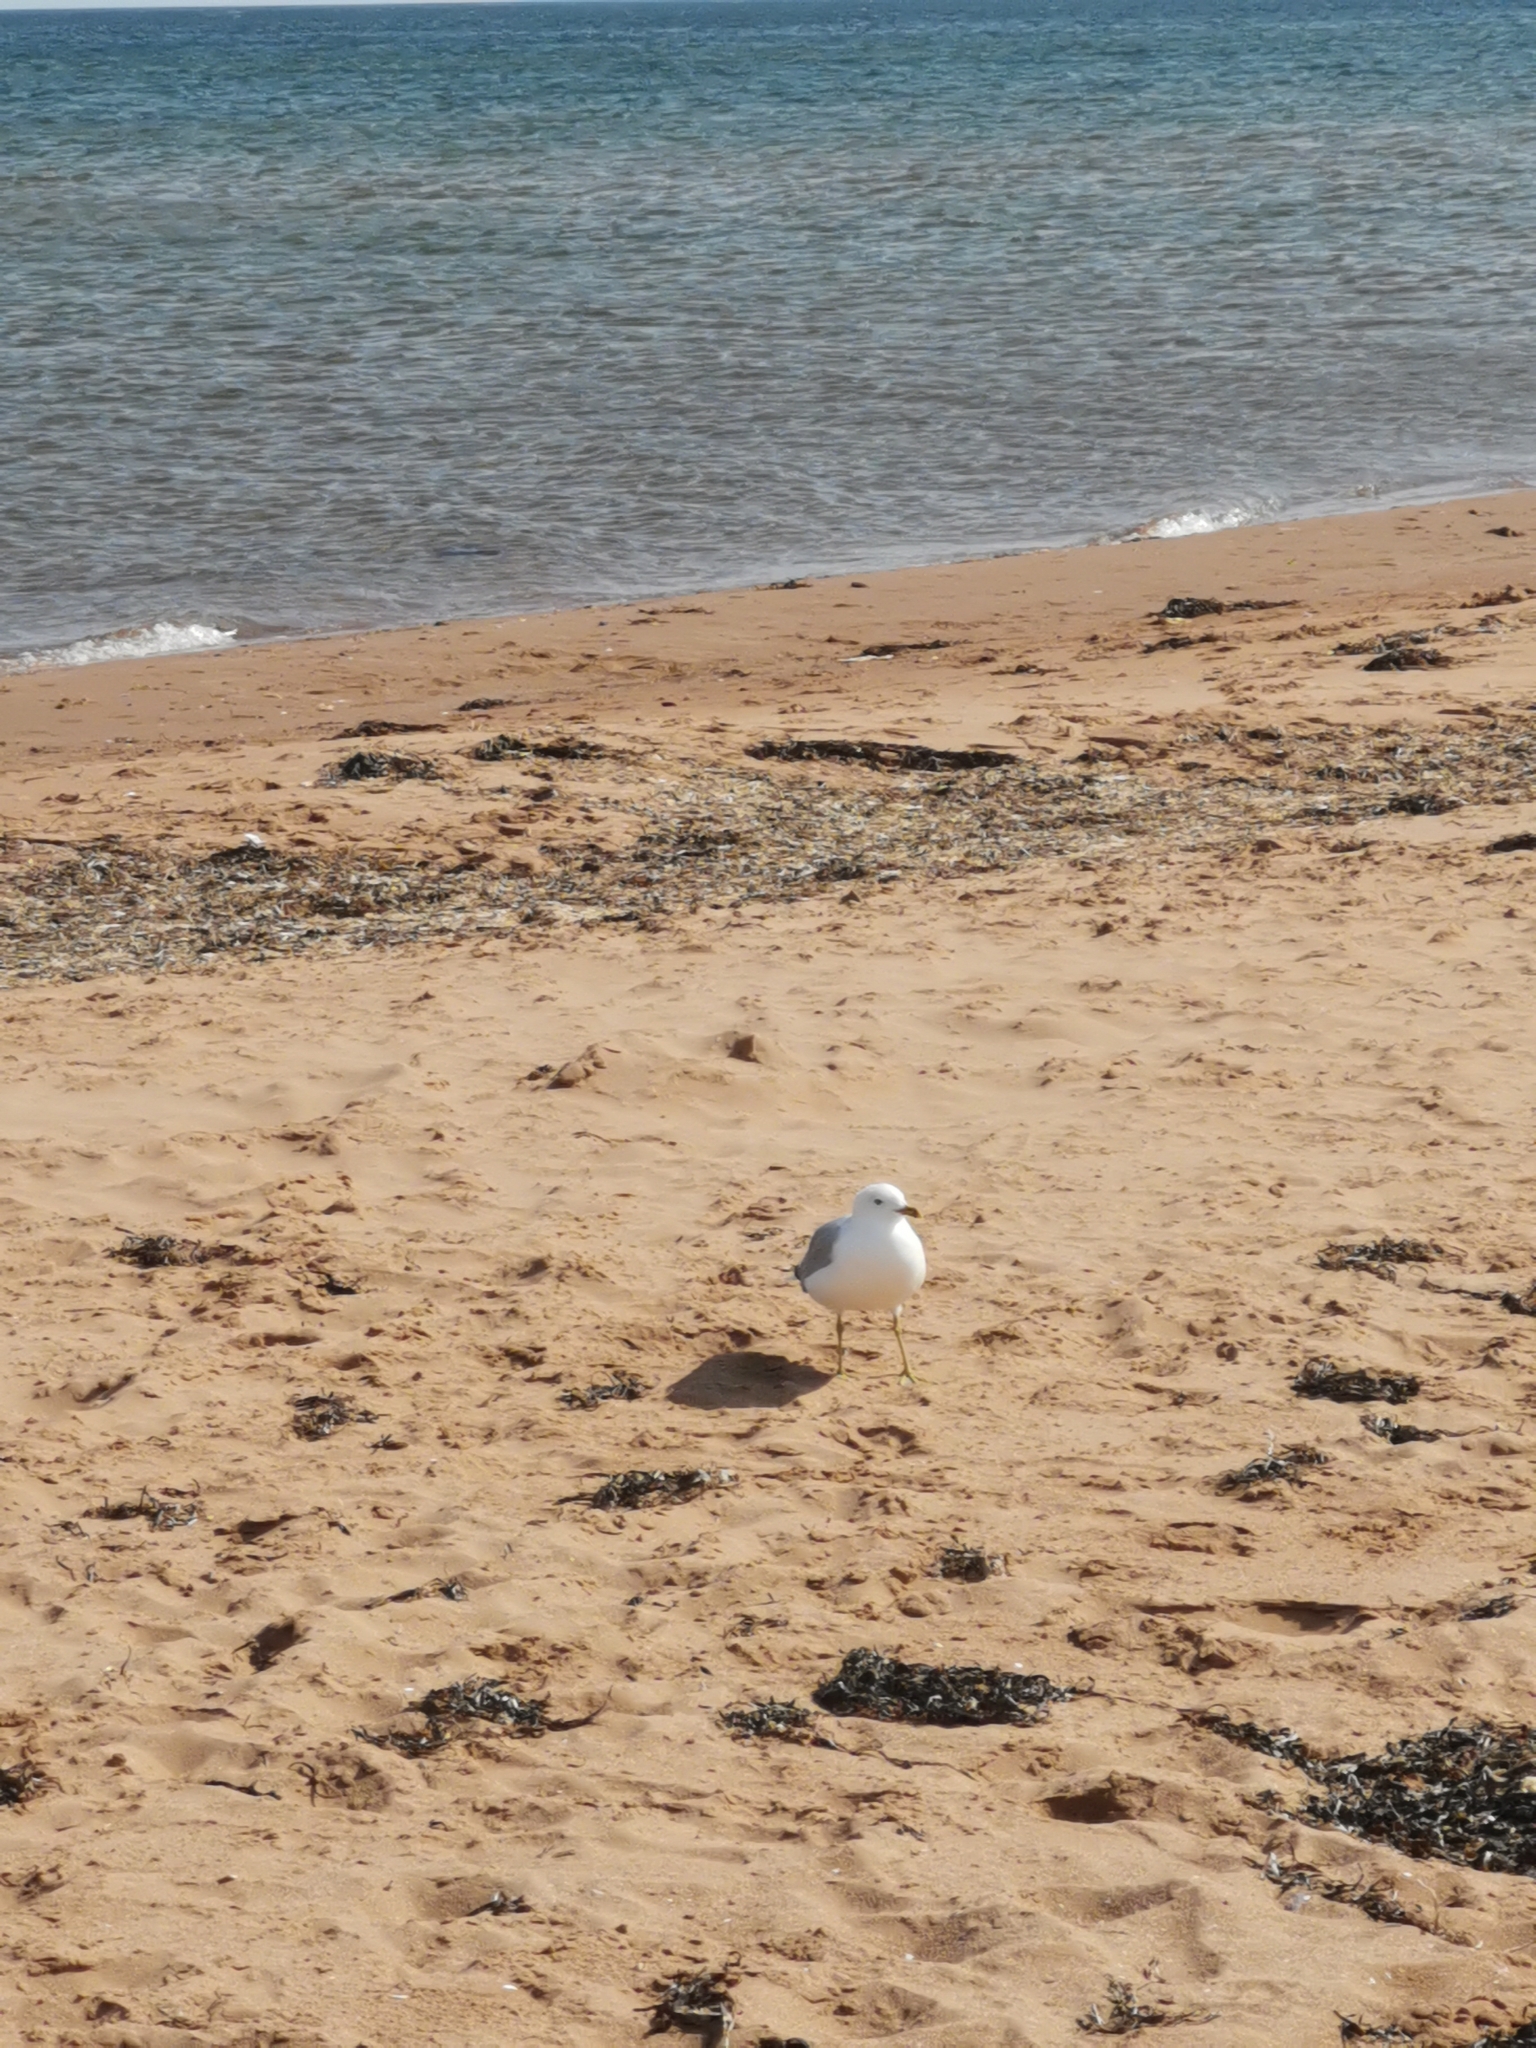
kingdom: Animalia
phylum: Chordata
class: Aves
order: Charadriiformes
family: Laridae
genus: Larus
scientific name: Larus delawarensis
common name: Ring-billed gull
